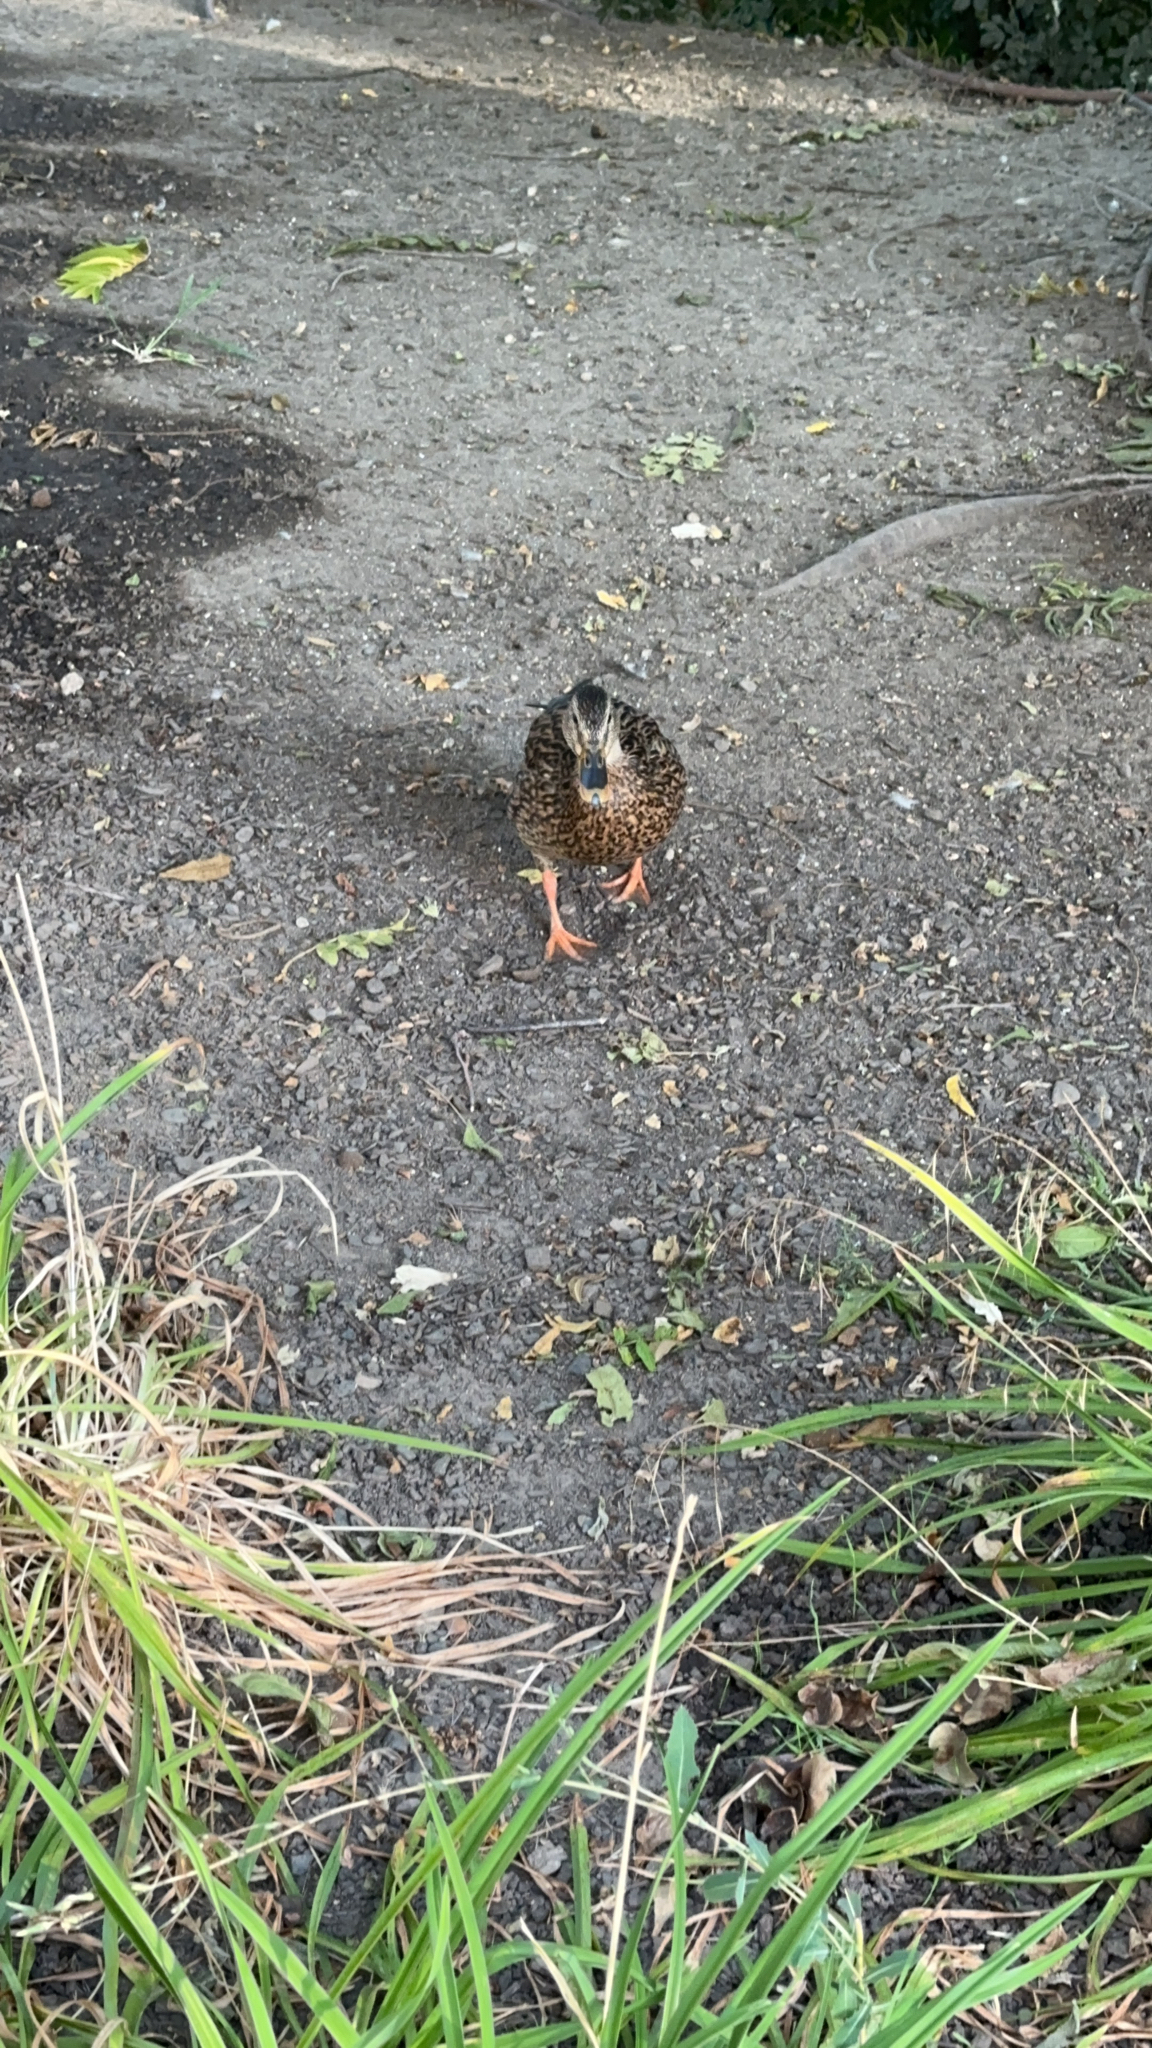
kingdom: Animalia
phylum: Chordata
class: Aves
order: Anseriformes
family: Anatidae
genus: Anas
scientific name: Anas platyrhynchos
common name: Mallard
